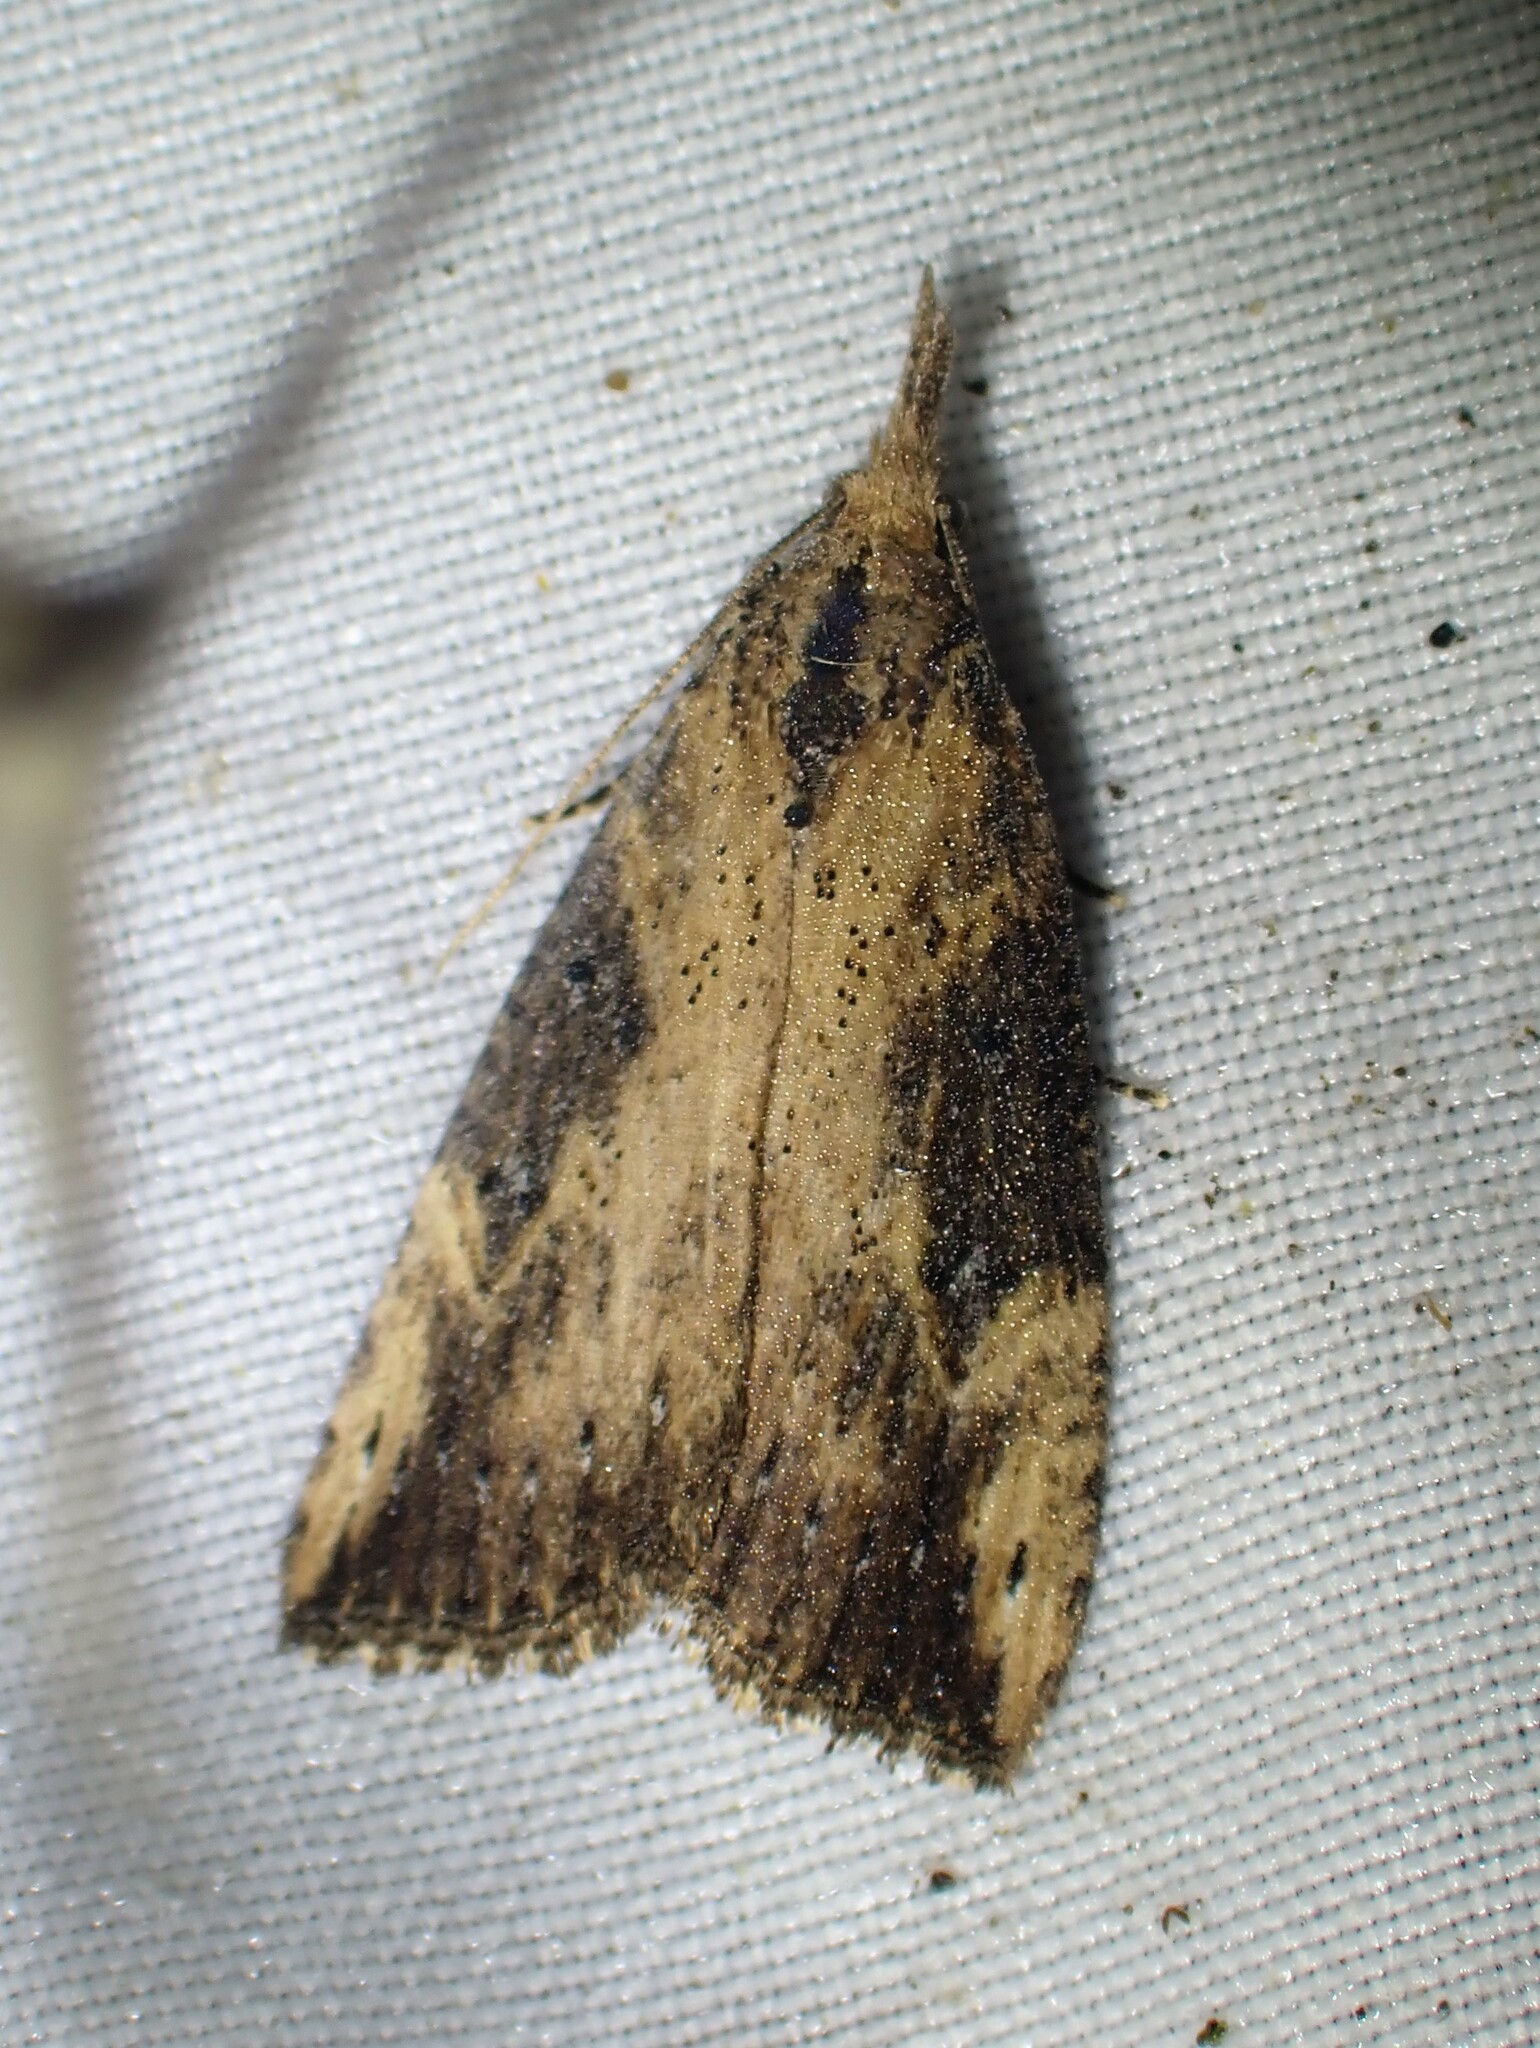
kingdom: Animalia
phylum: Arthropoda
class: Insecta
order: Lepidoptera
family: Erebidae
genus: Hypena
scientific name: Hypena humuli
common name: Hop vine snout
